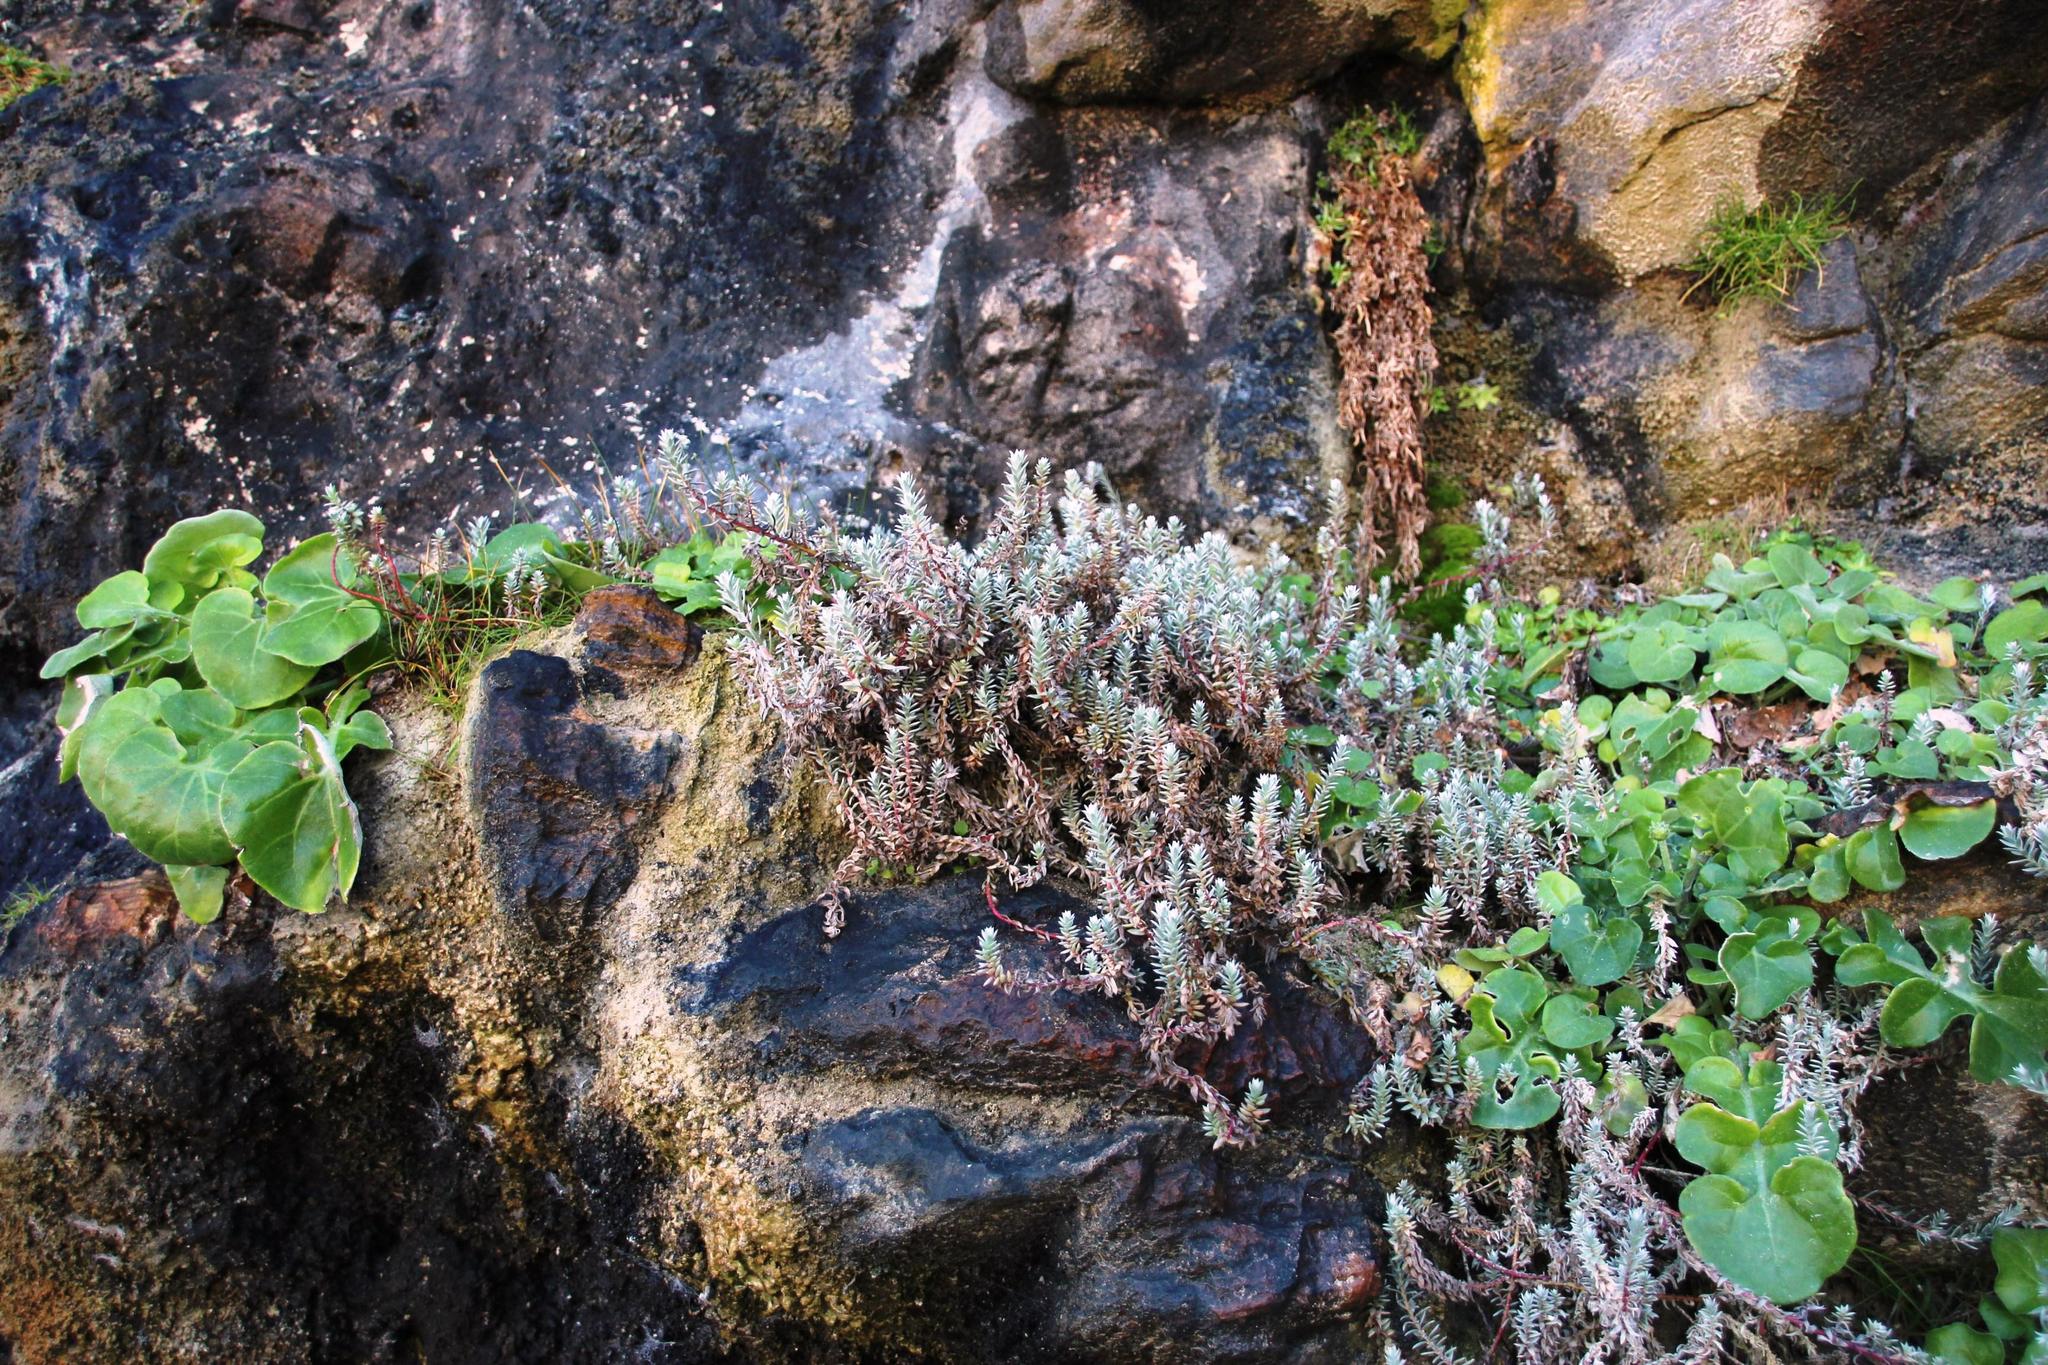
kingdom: Plantae
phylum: Tracheophyta
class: Magnoliopsida
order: Caryophyllales
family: Amaranthaceae
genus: Chenolea
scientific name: Chenolea diffusa
